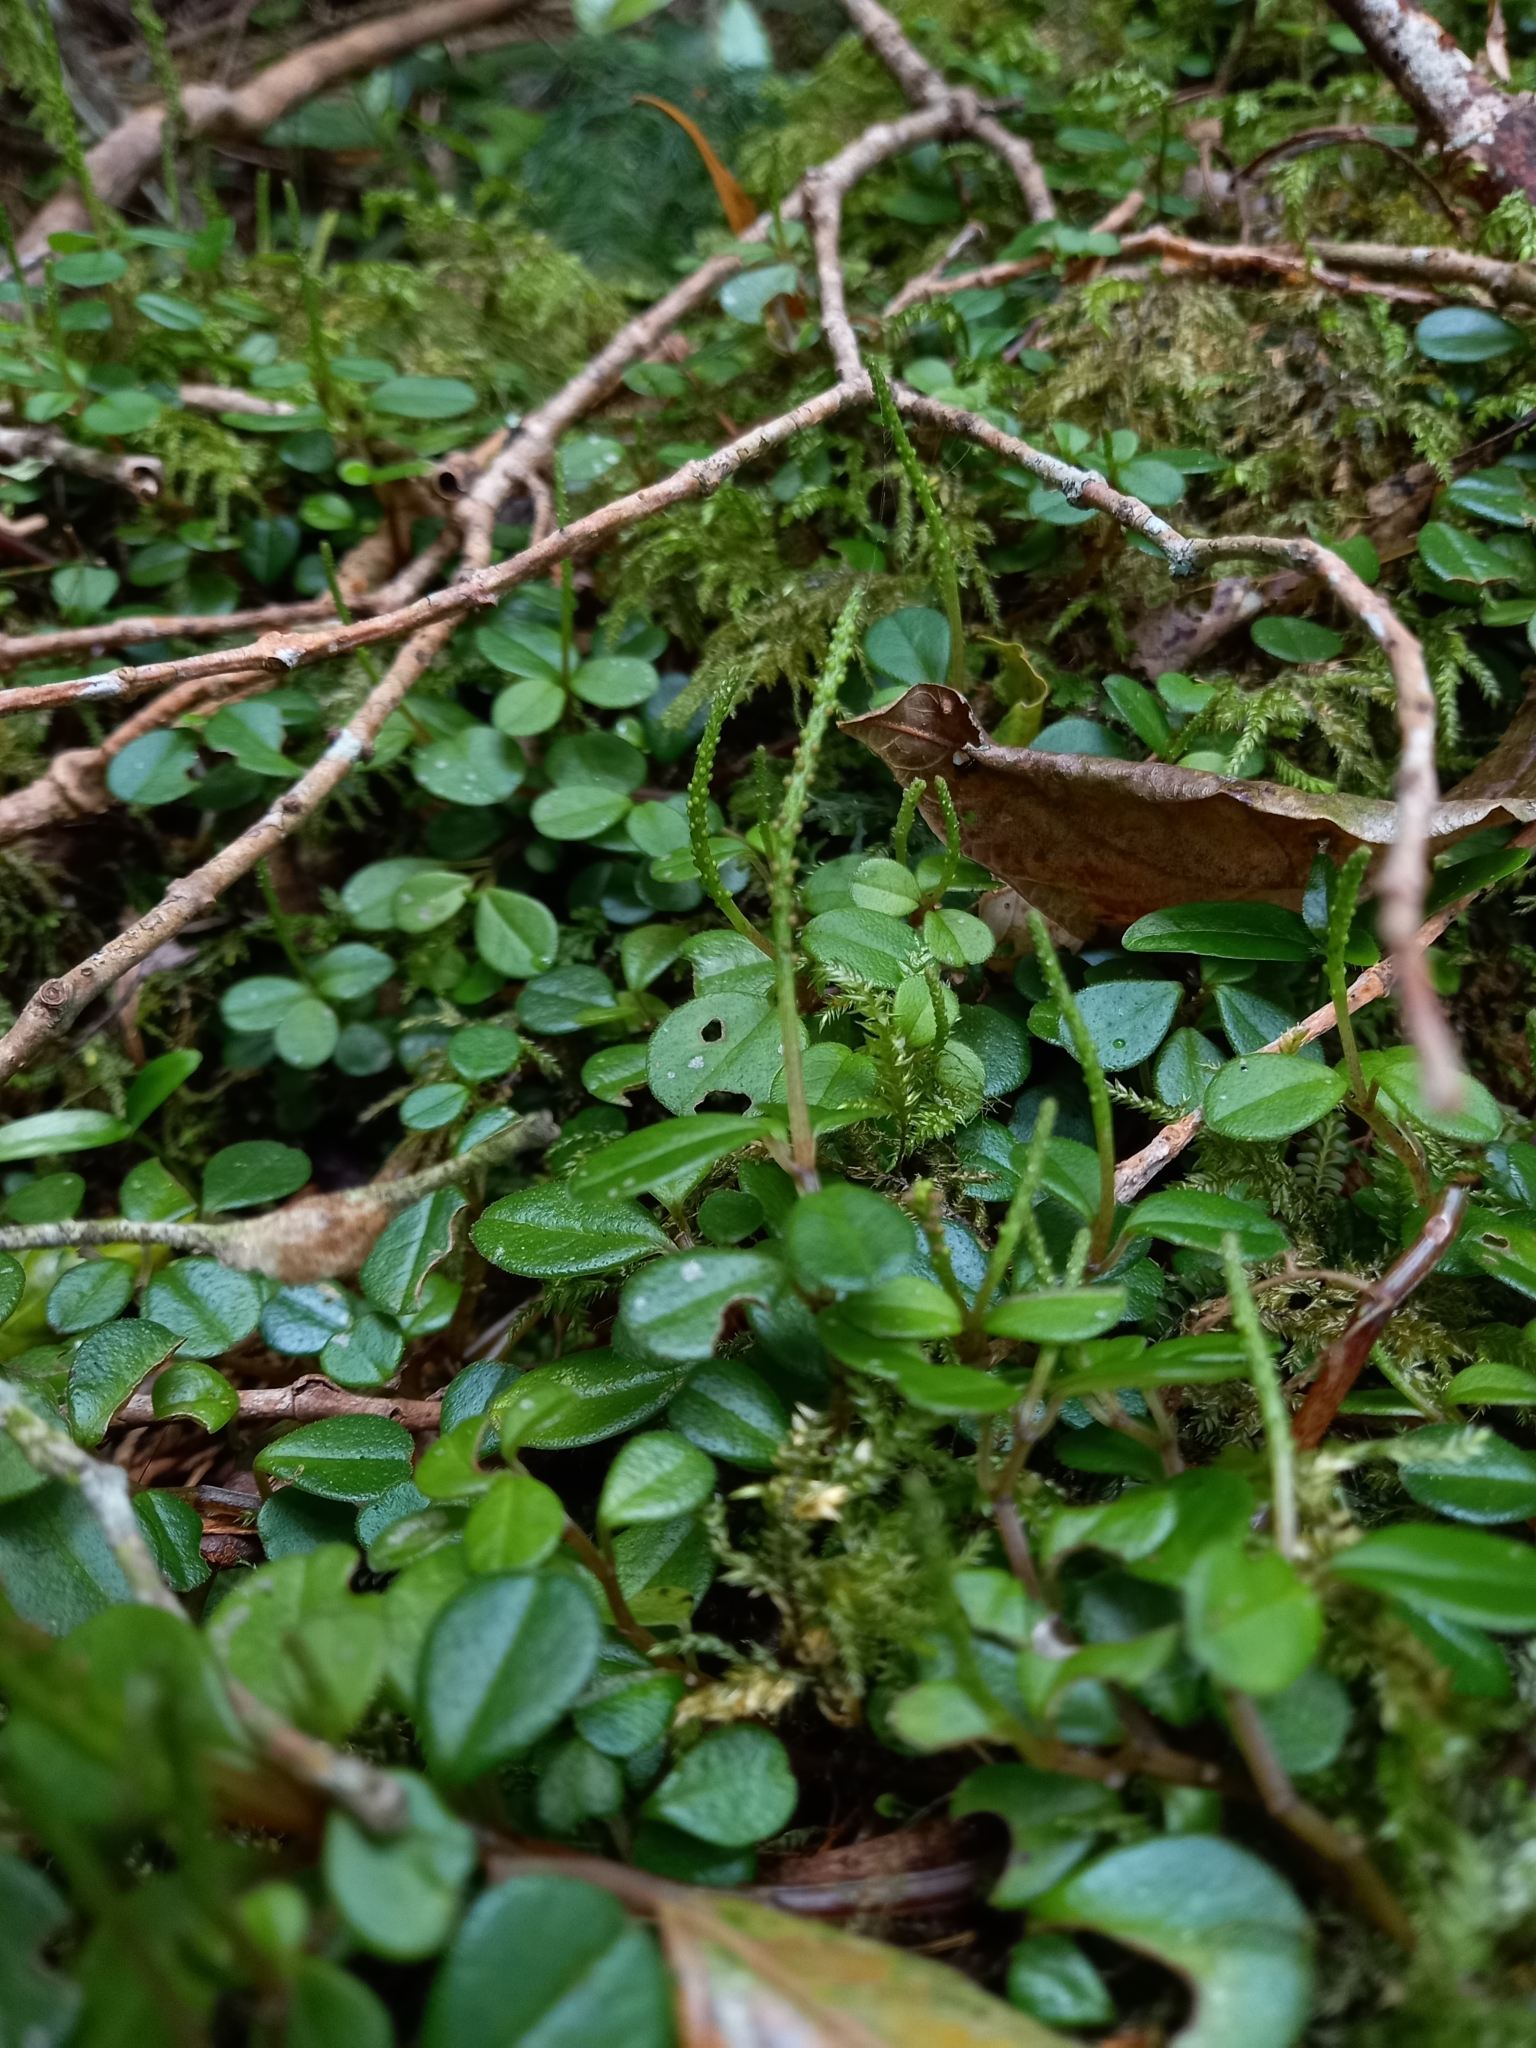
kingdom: Plantae
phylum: Tracheophyta
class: Magnoliopsida
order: Piperales
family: Piperaceae
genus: Peperomia
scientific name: Peperomia retusa
